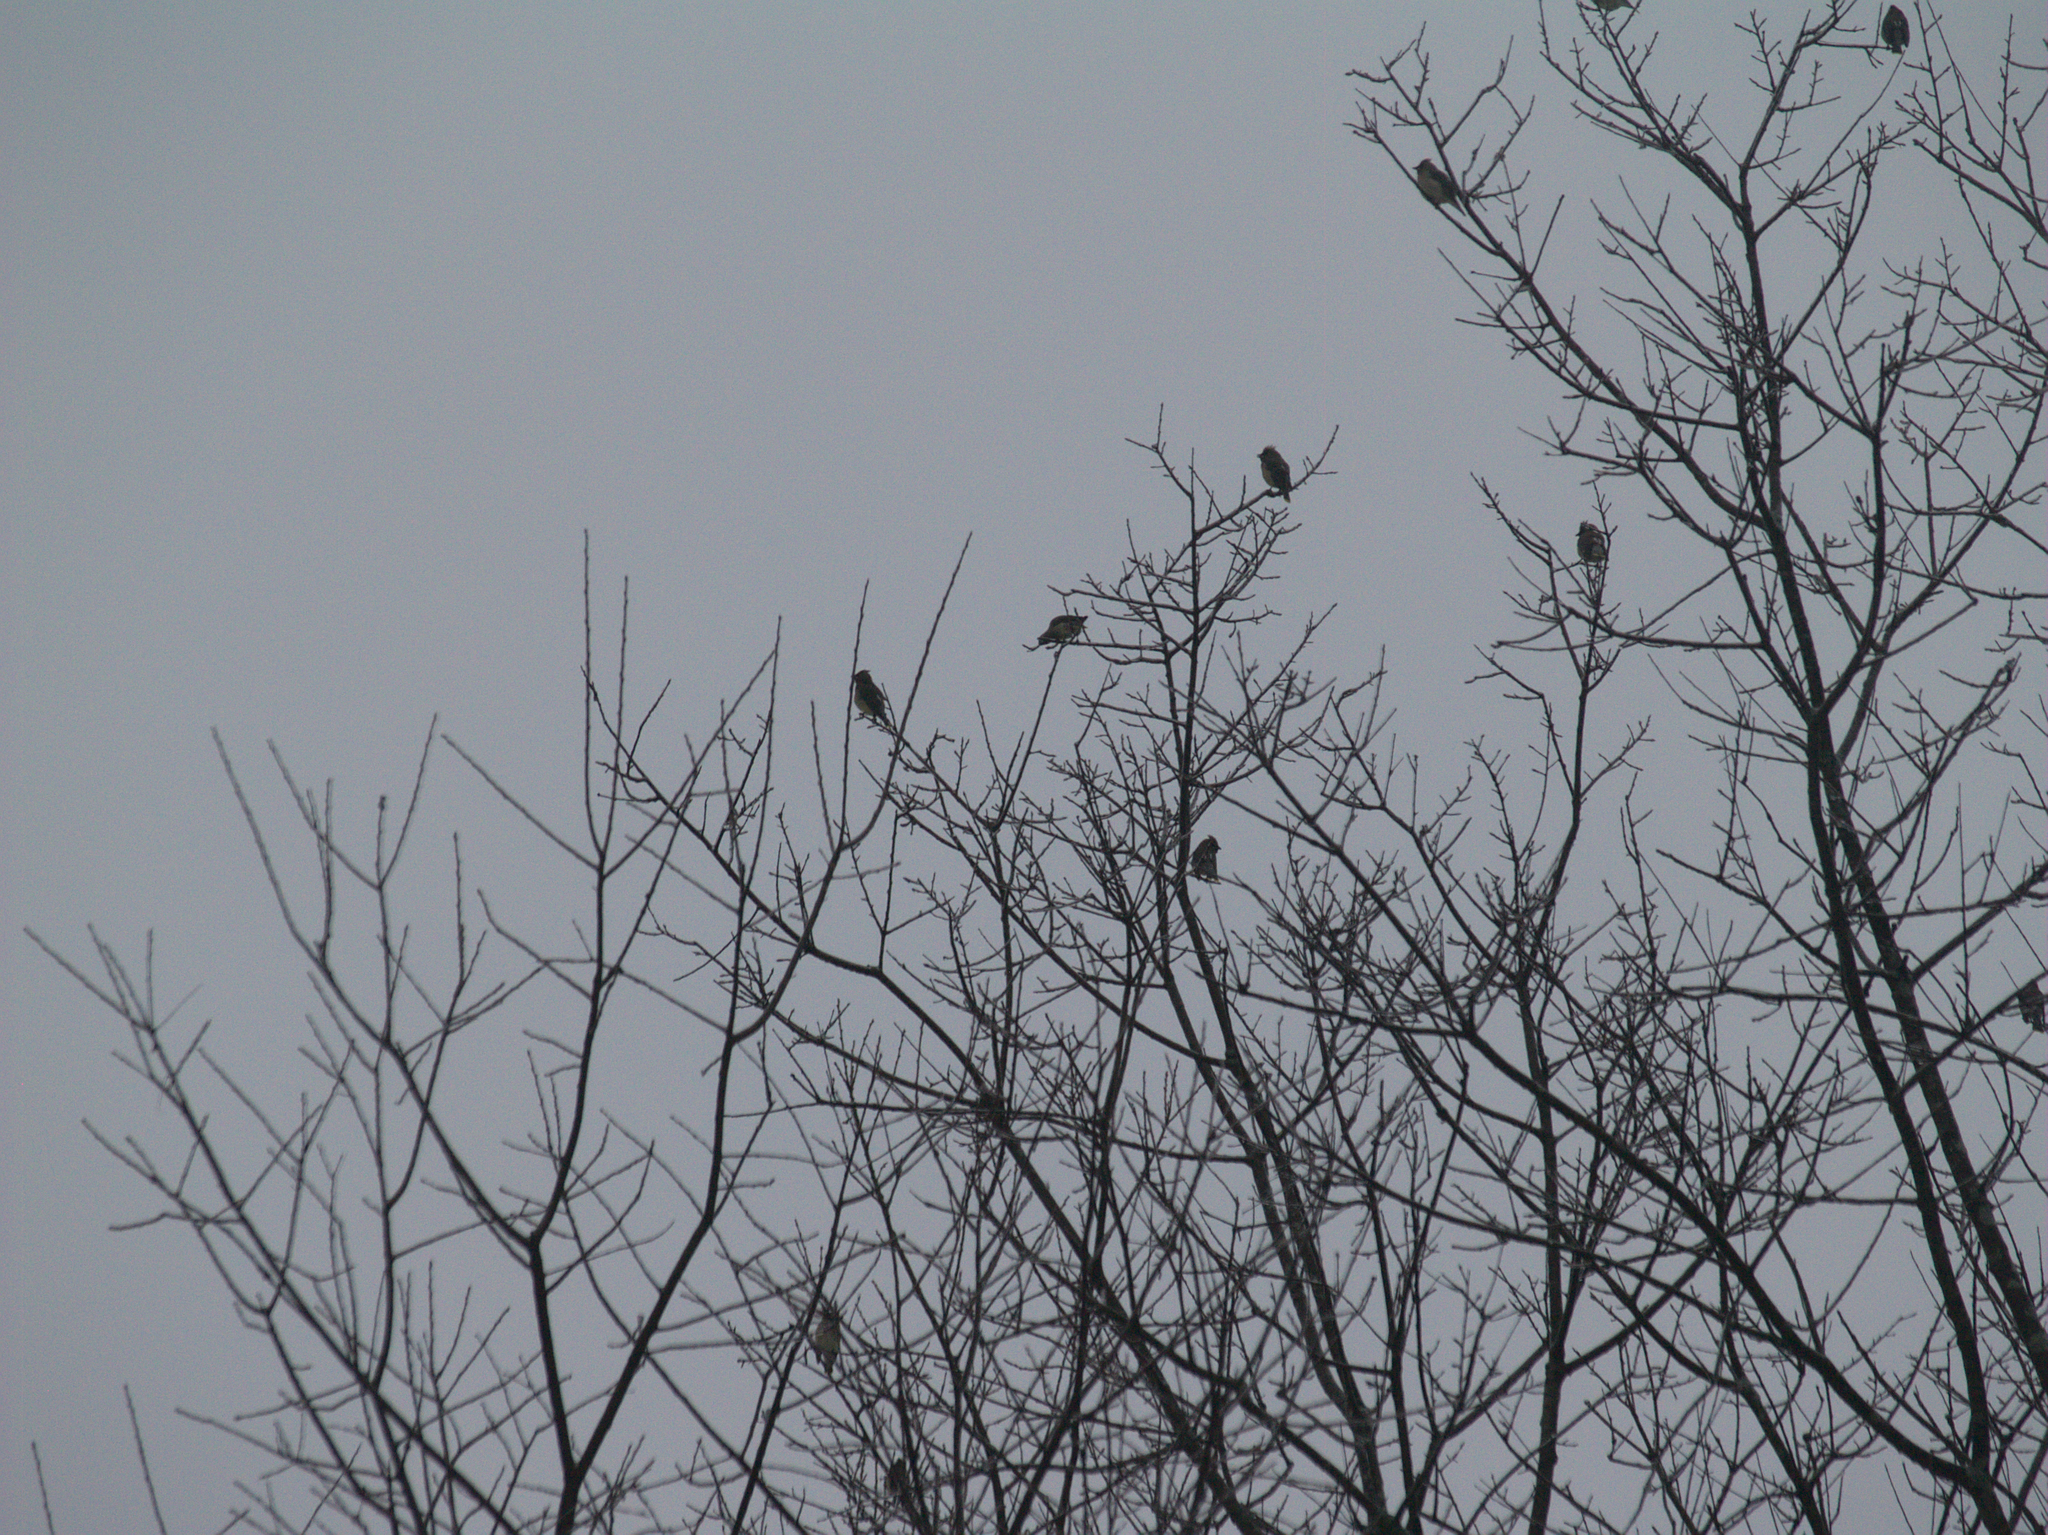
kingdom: Animalia
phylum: Chordata
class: Aves
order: Passeriformes
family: Bombycillidae
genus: Bombycilla
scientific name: Bombycilla cedrorum
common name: Cedar waxwing
